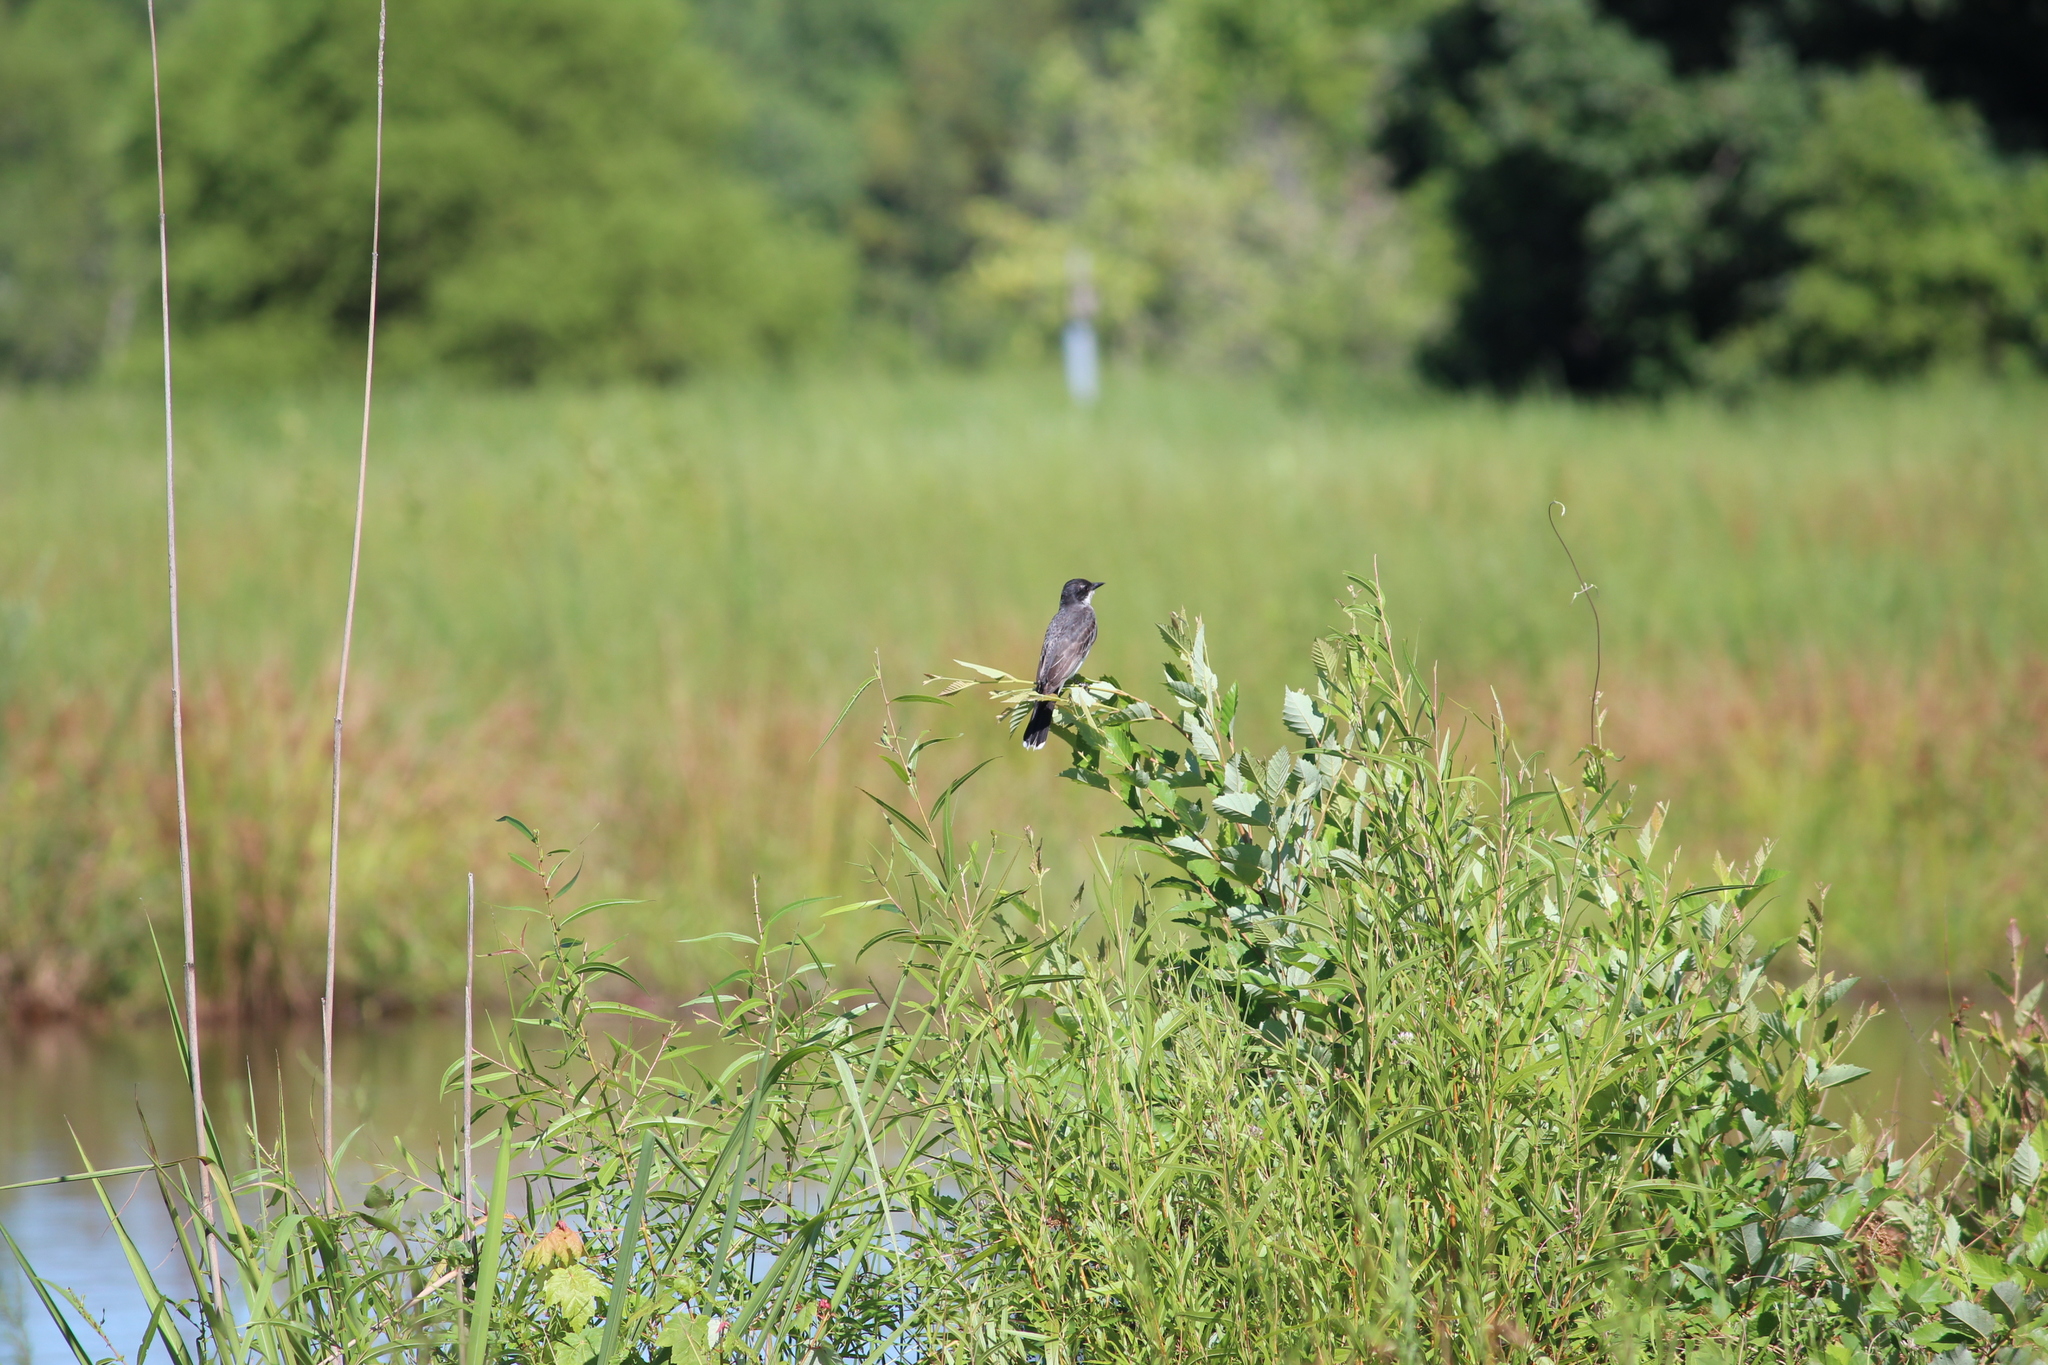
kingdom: Animalia
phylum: Chordata
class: Aves
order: Passeriformes
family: Tyrannidae
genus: Tyrannus
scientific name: Tyrannus tyrannus
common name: Eastern kingbird
